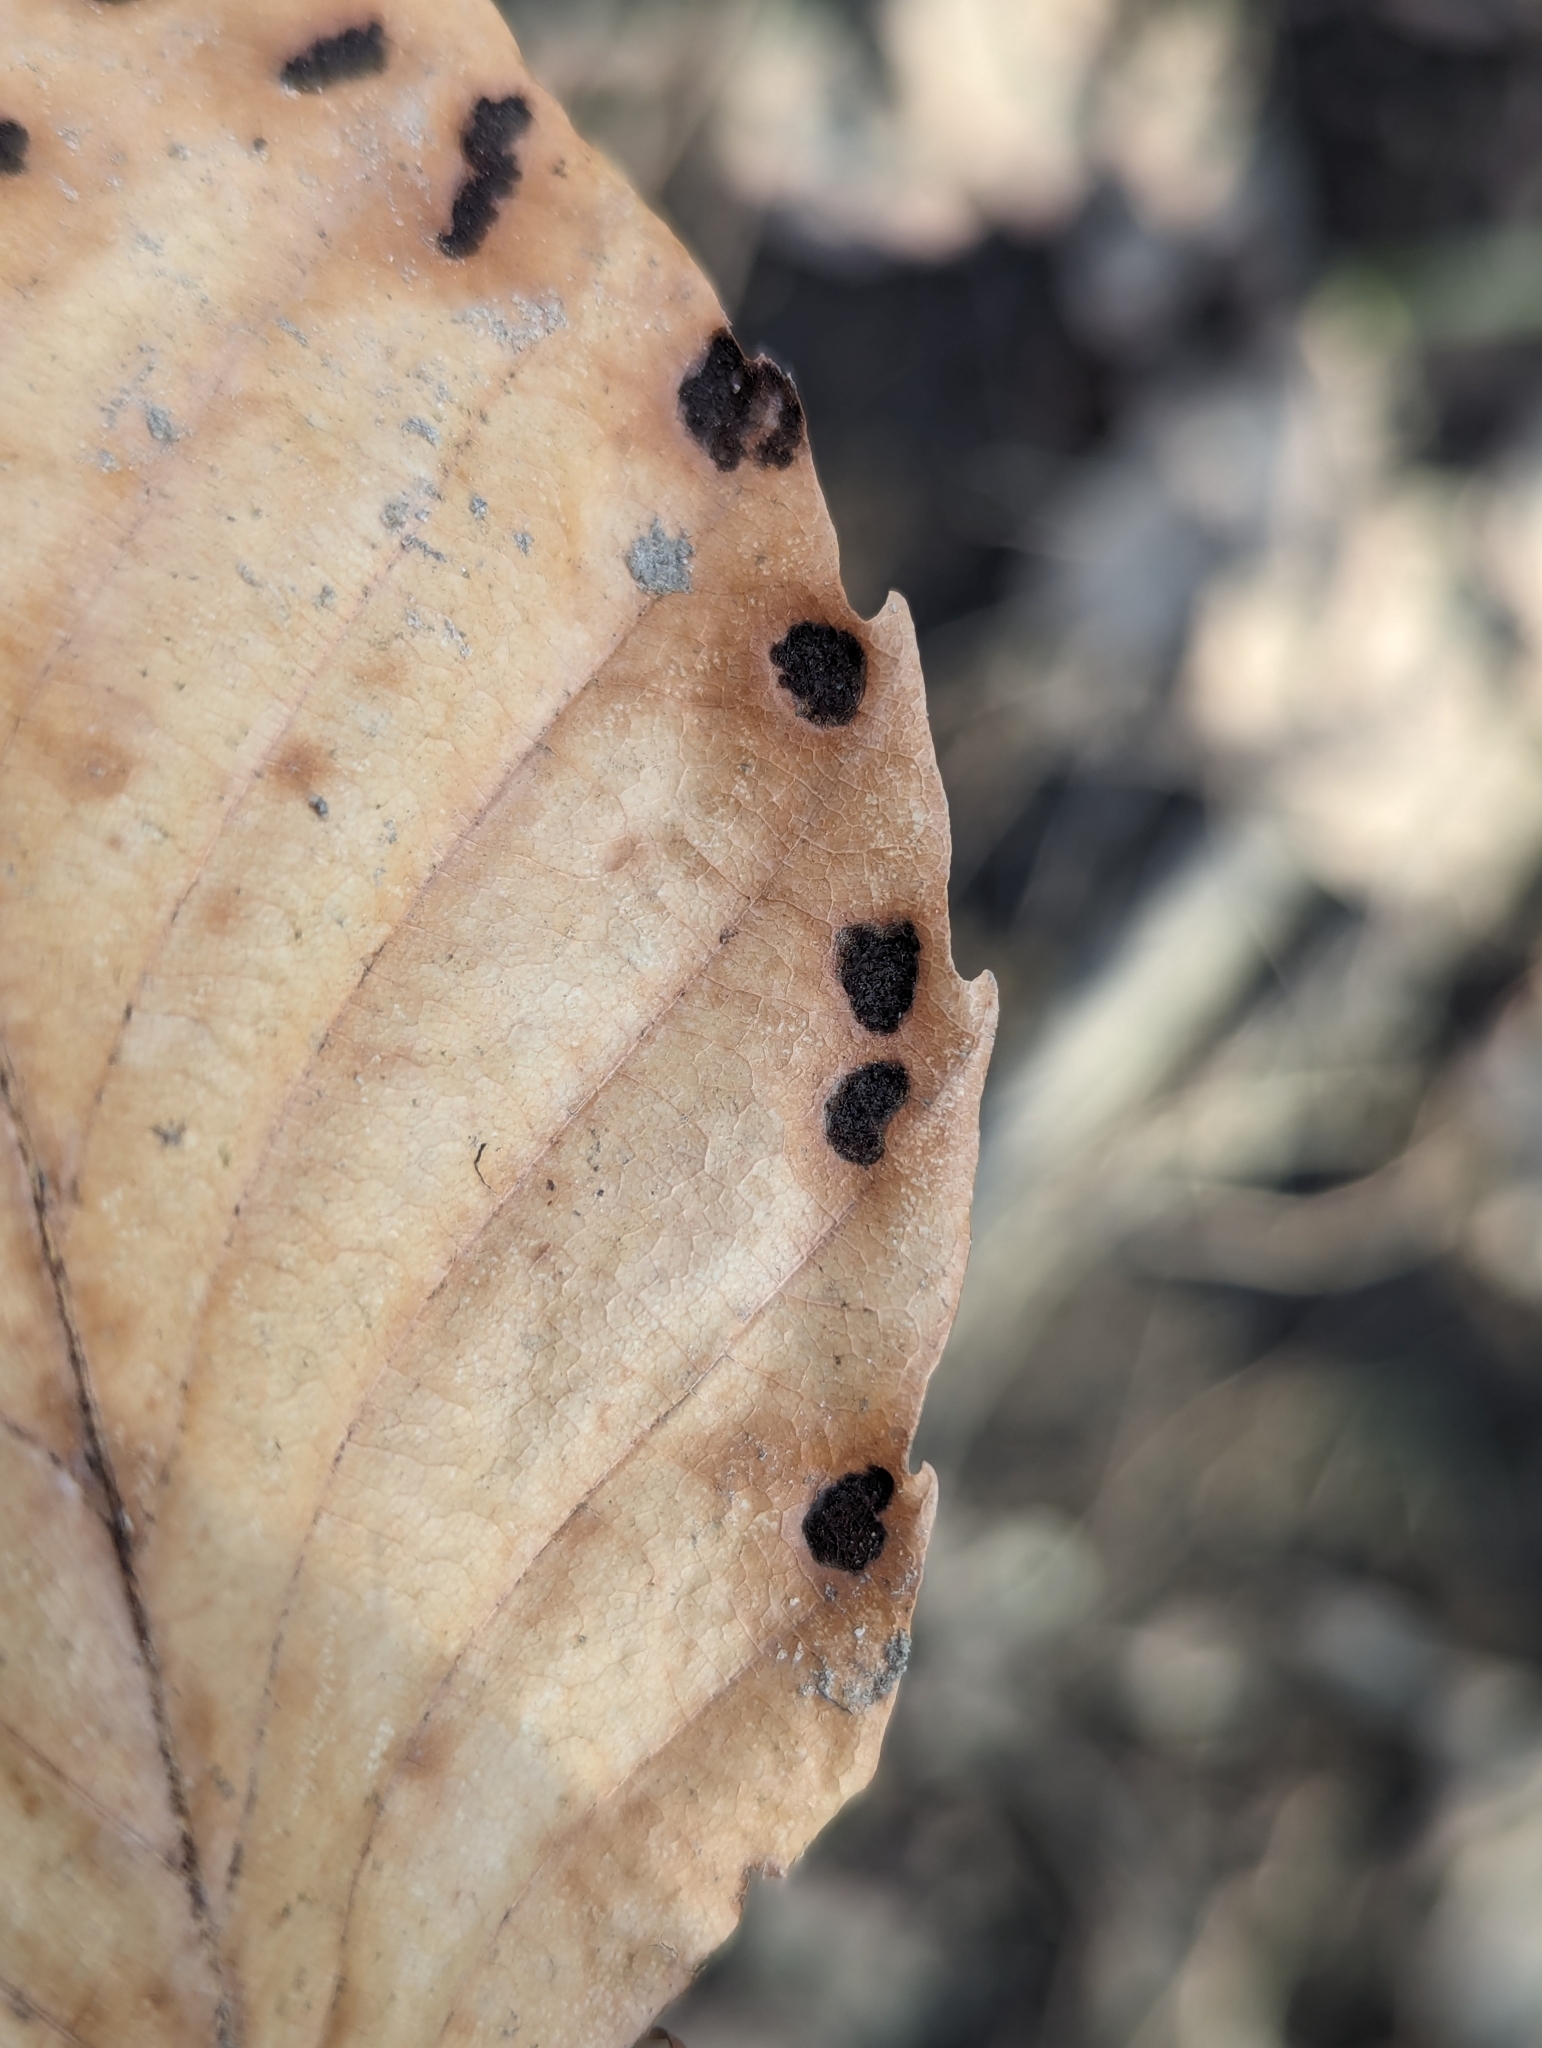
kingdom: Animalia
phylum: Arthropoda
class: Arachnida
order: Trombidiformes
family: Eriophyidae
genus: Acalitus
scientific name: Acalitus
